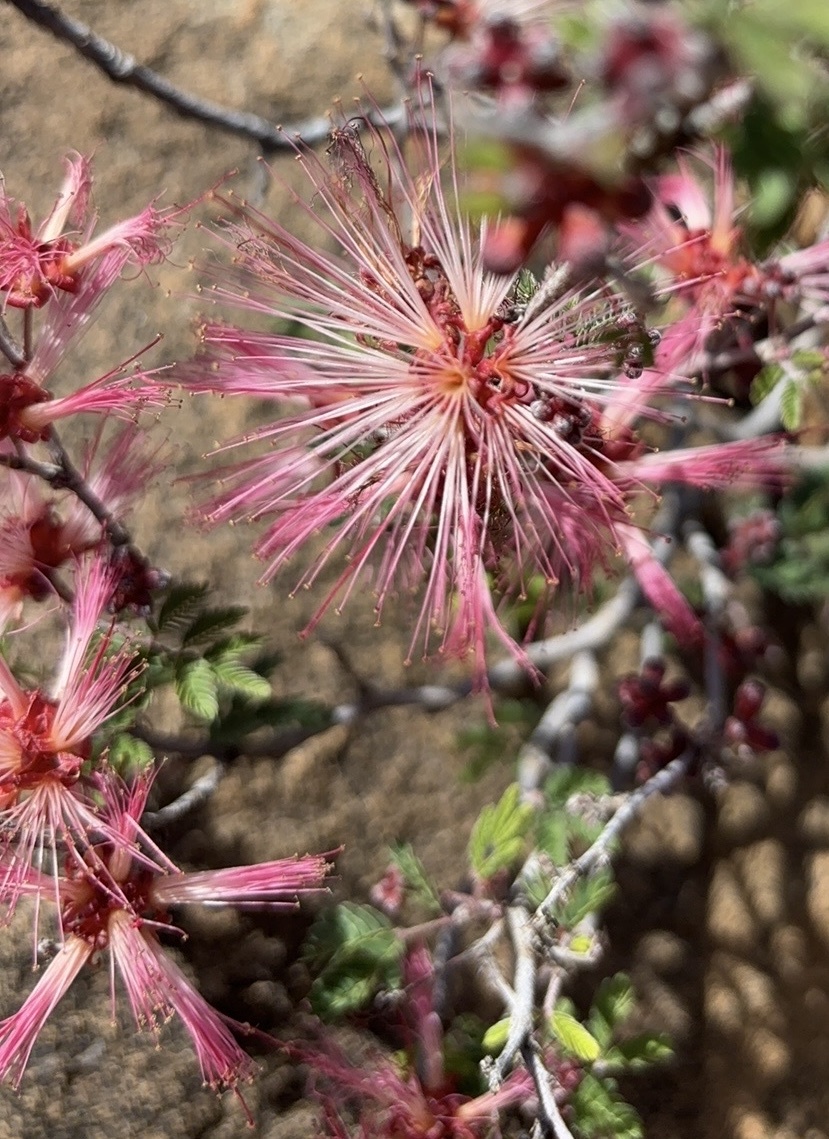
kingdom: Plantae
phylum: Tracheophyta
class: Magnoliopsida
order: Fabales
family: Fabaceae
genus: Calliandra
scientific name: Calliandra eriophylla
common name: Fairy-duster
